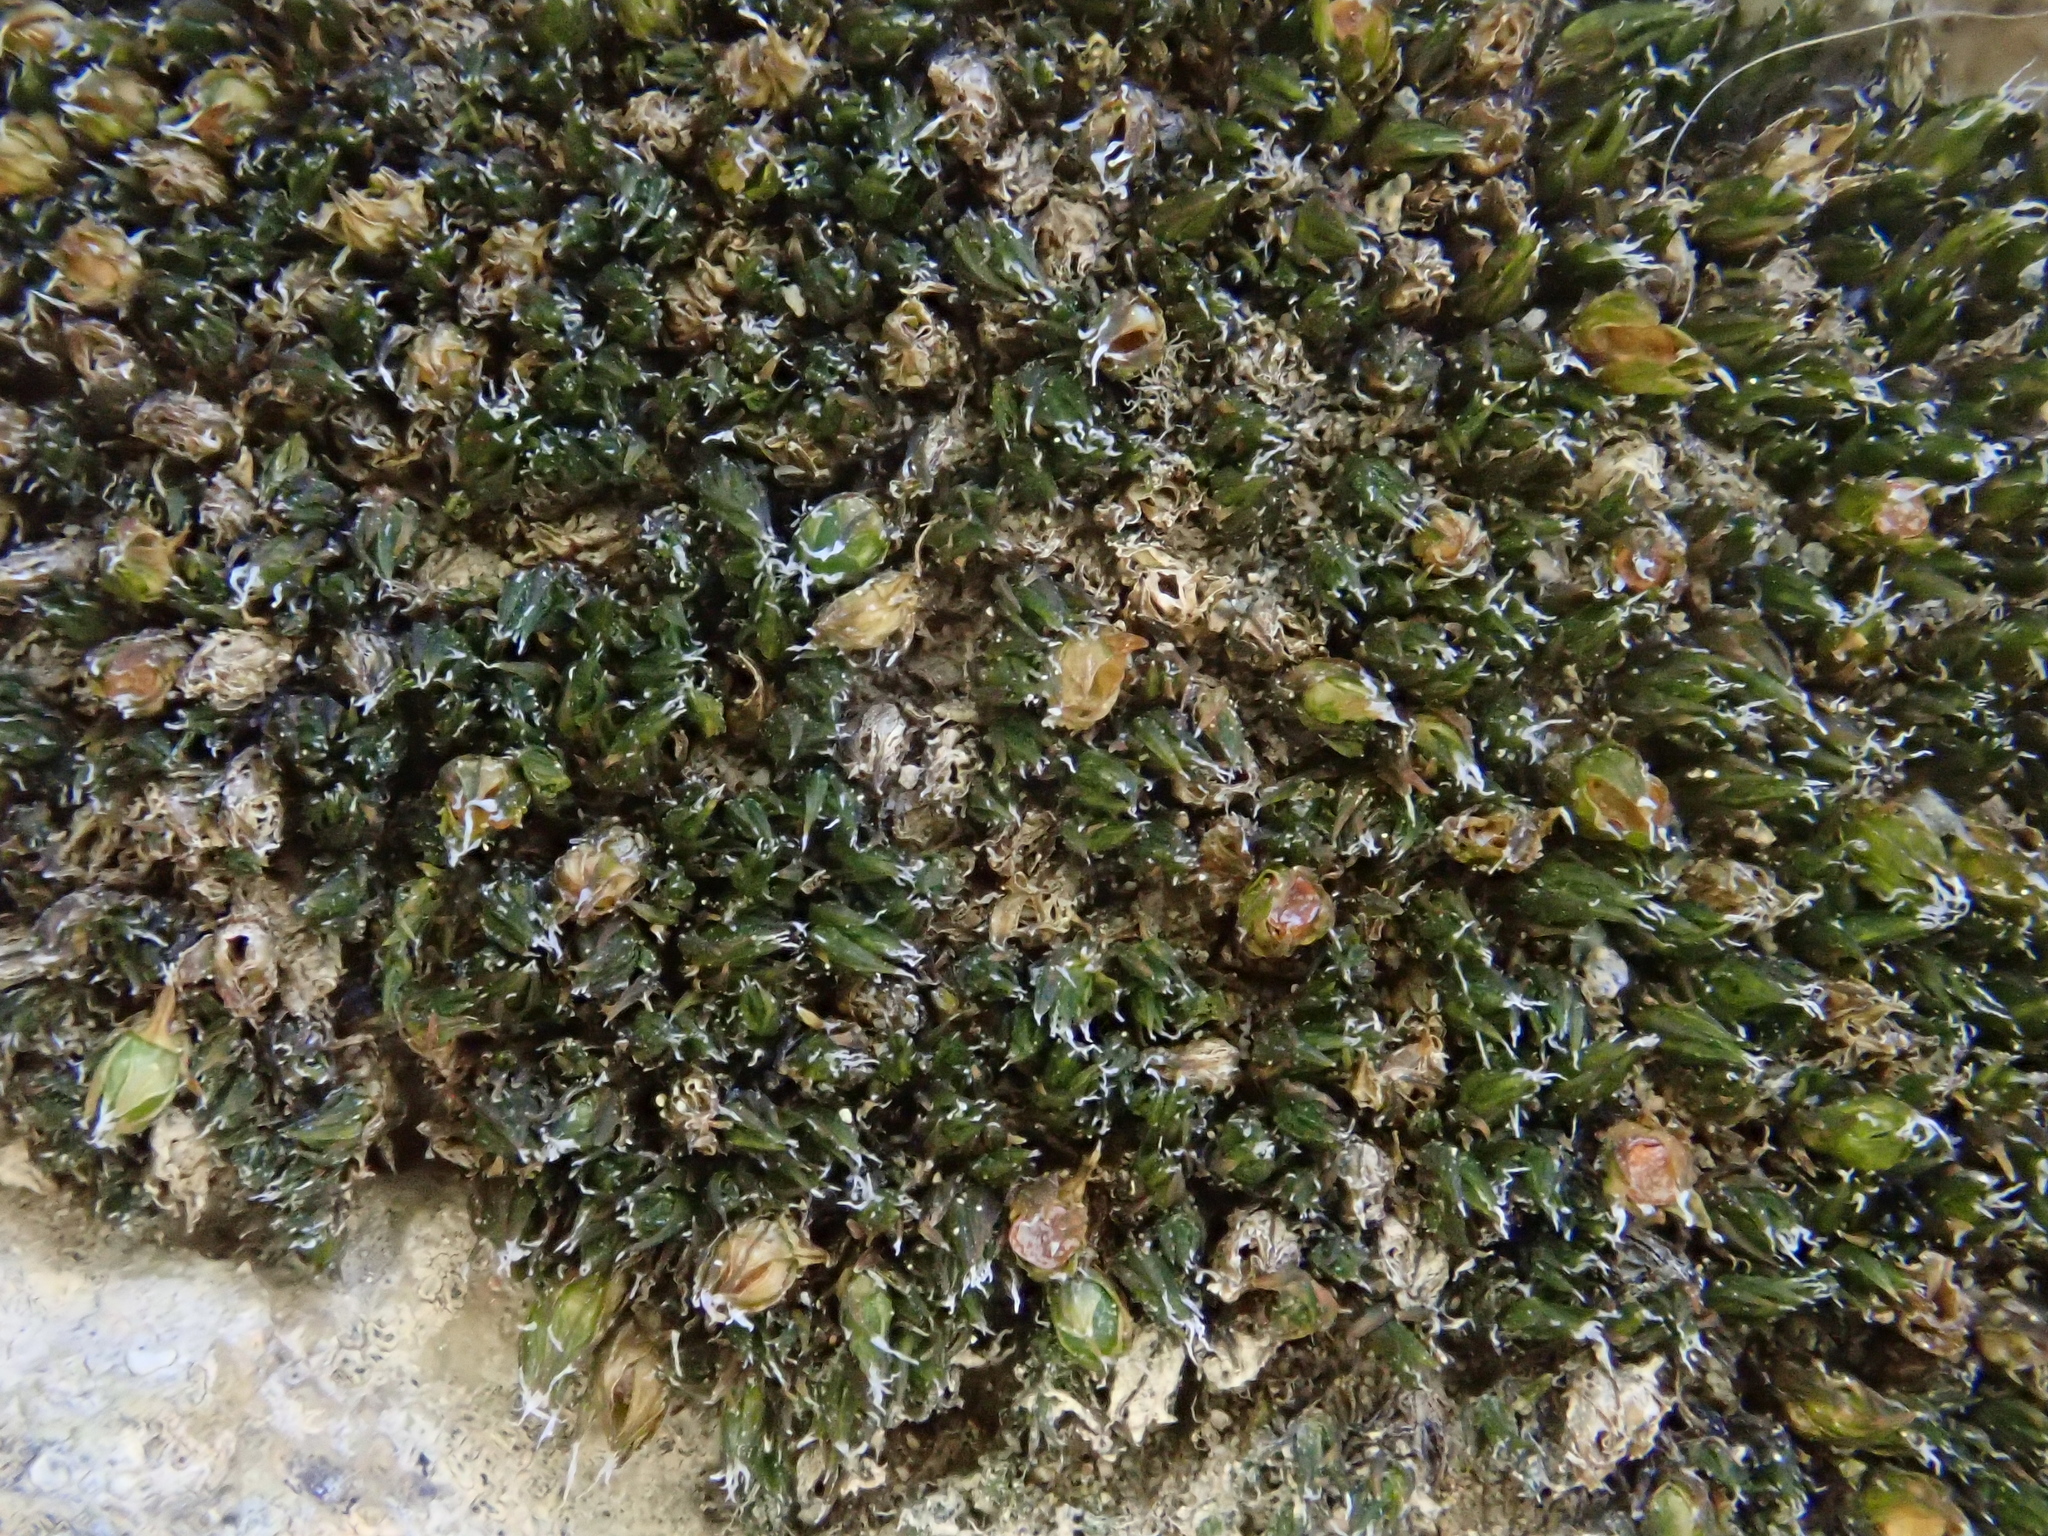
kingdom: Plantae
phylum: Bryophyta
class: Bryopsida
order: Grimmiales
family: Grimmiaceae
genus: Schistidium
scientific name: Schistidium flaccidum
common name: Chubby grimmia
